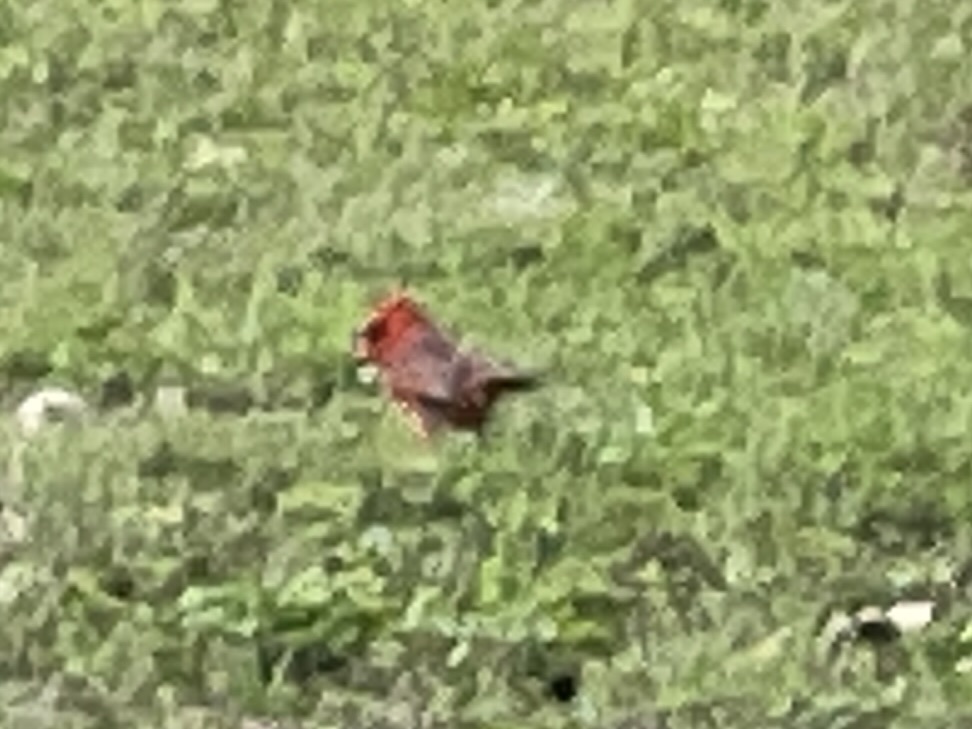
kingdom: Animalia
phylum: Chordata
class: Aves
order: Passeriformes
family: Cardinalidae
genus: Cardinalis
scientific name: Cardinalis cardinalis
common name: Northern cardinal
